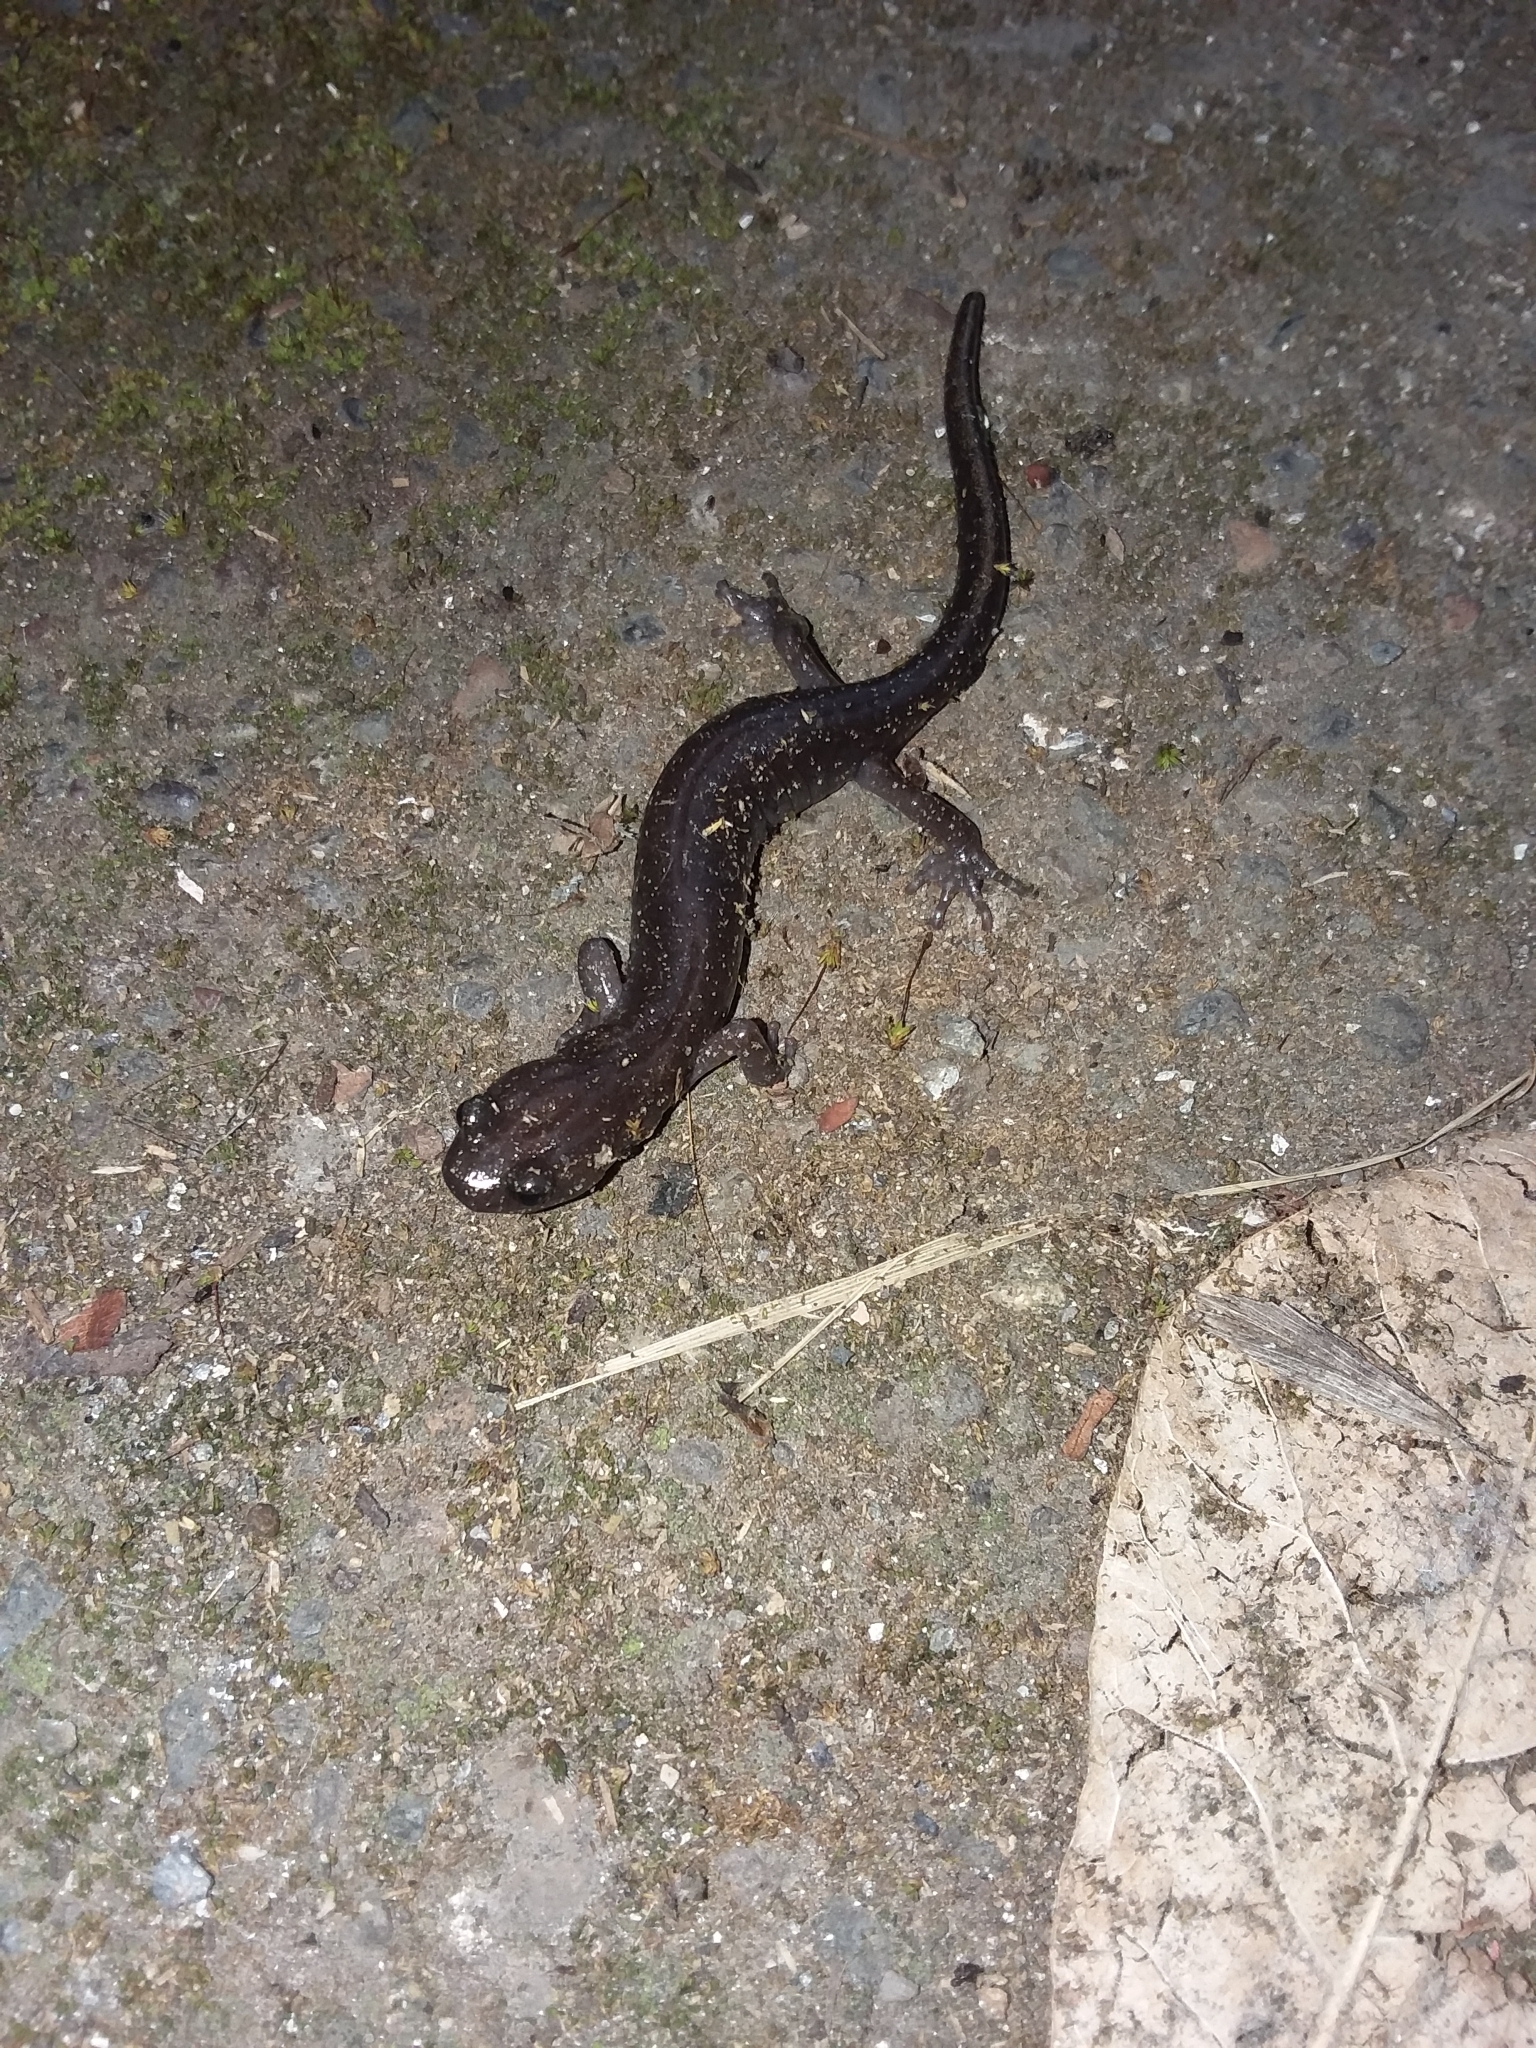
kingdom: Animalia
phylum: Chordata
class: Amphibia
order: Caudata
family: Plethodontidae
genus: Aneides
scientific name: Aneides ferreus
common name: Clouded salamander
